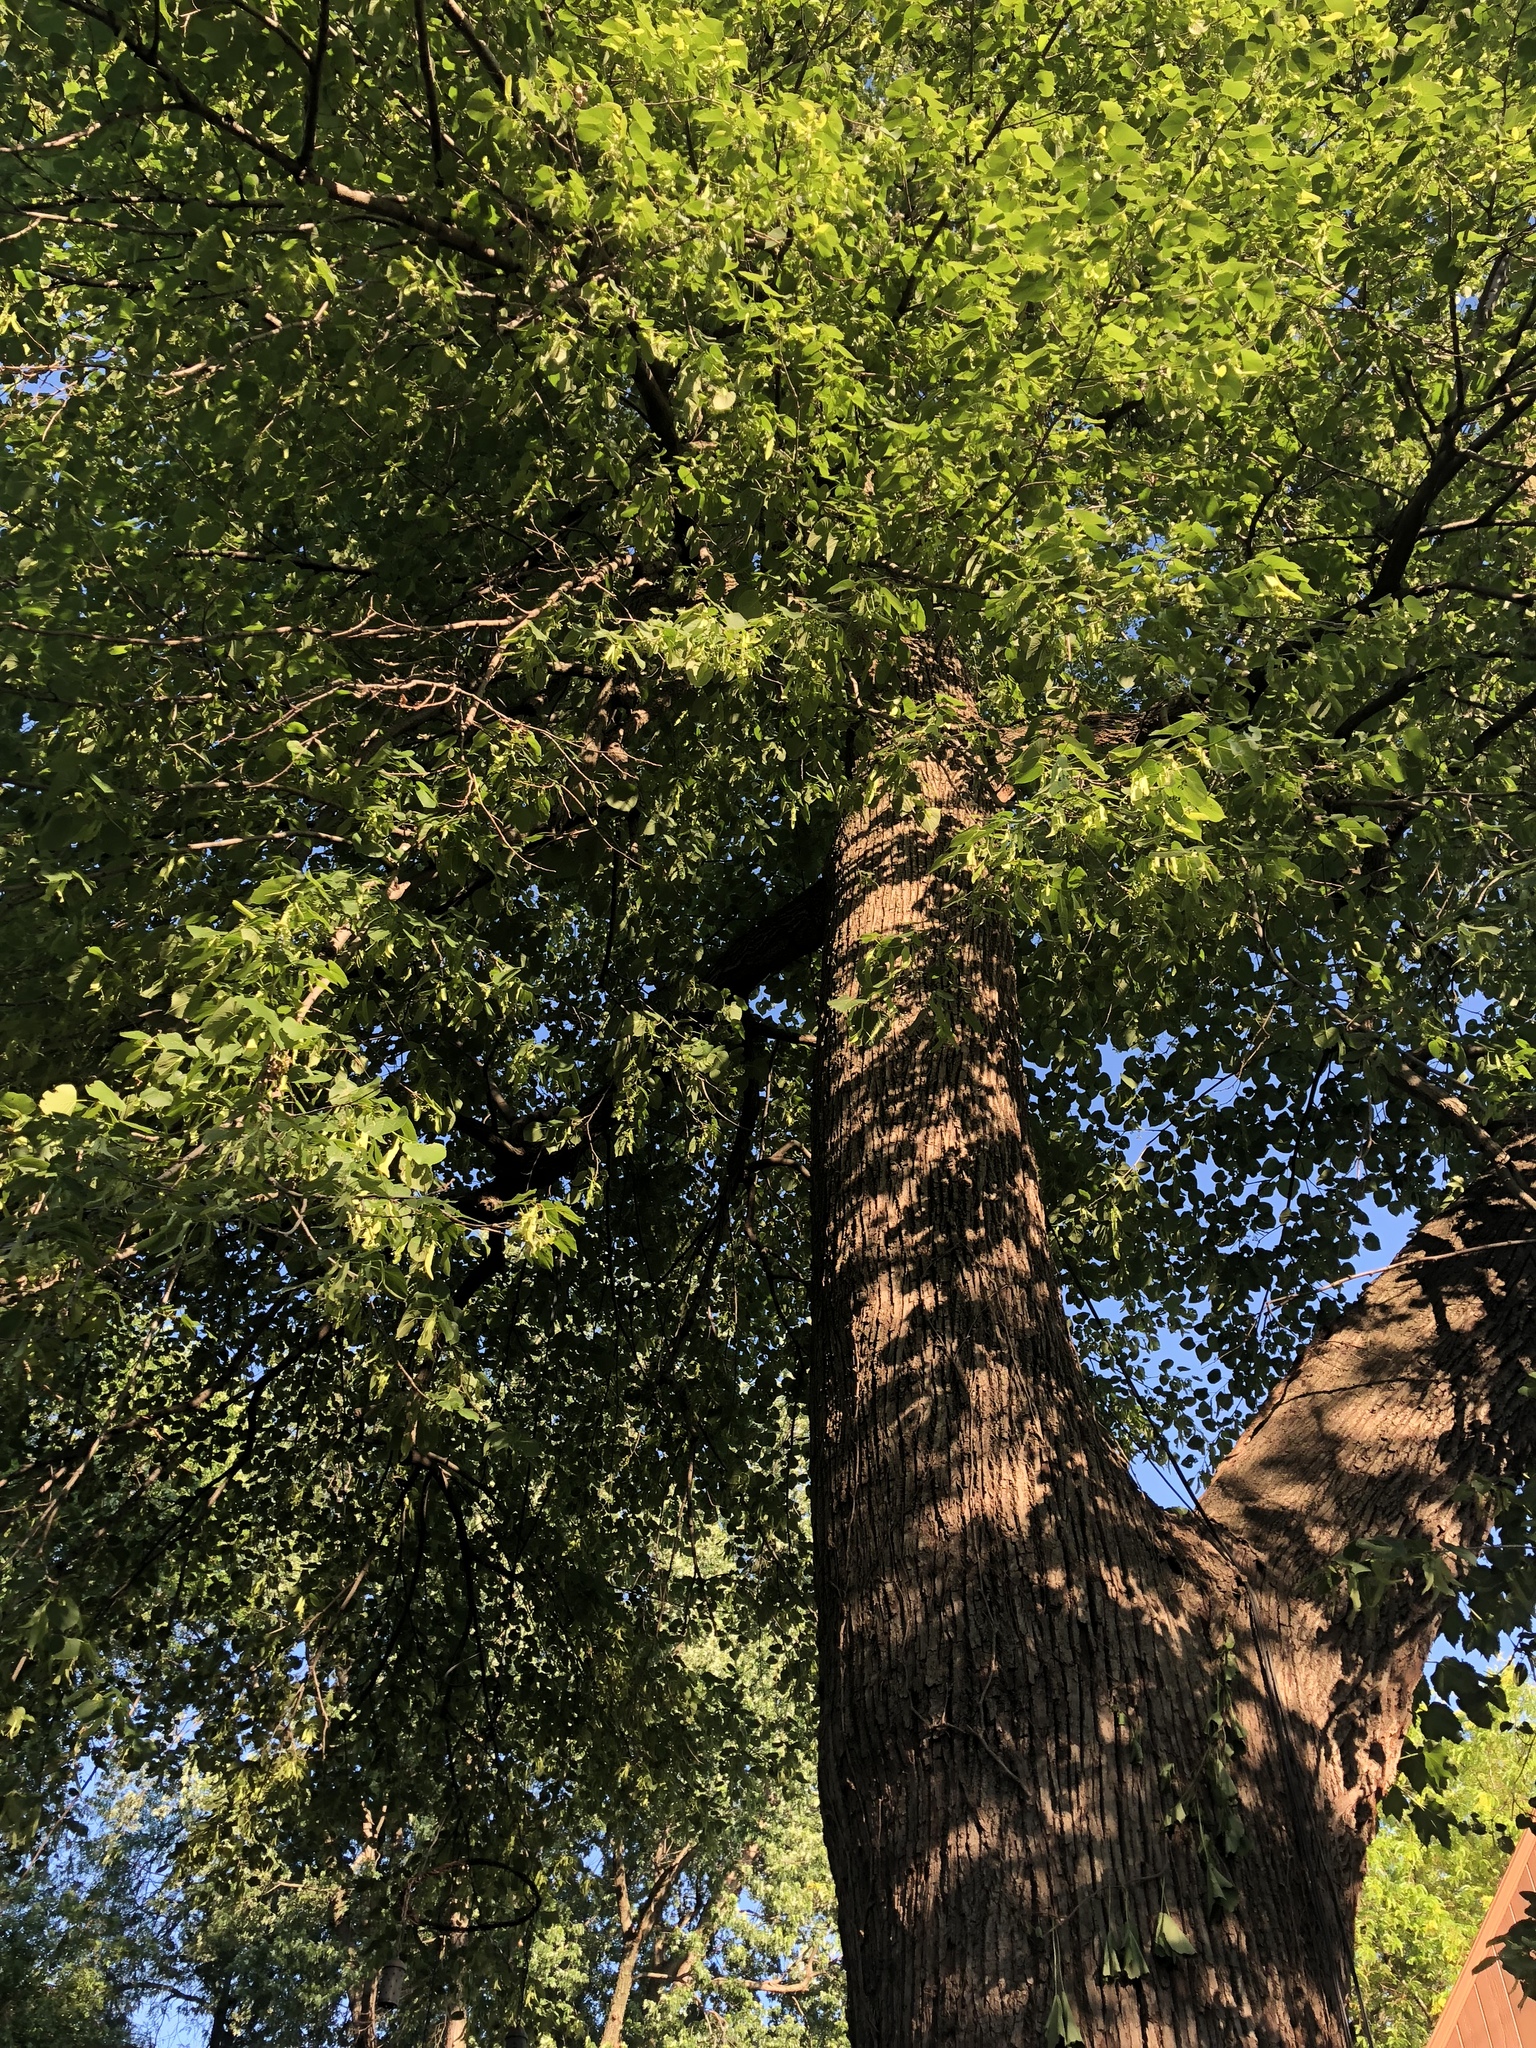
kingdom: Plantae
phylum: Tracheophyta
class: Magnoliopsida
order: Malvales
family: Malvaceae
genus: Tilia
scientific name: Tilia americana
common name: Basswood
